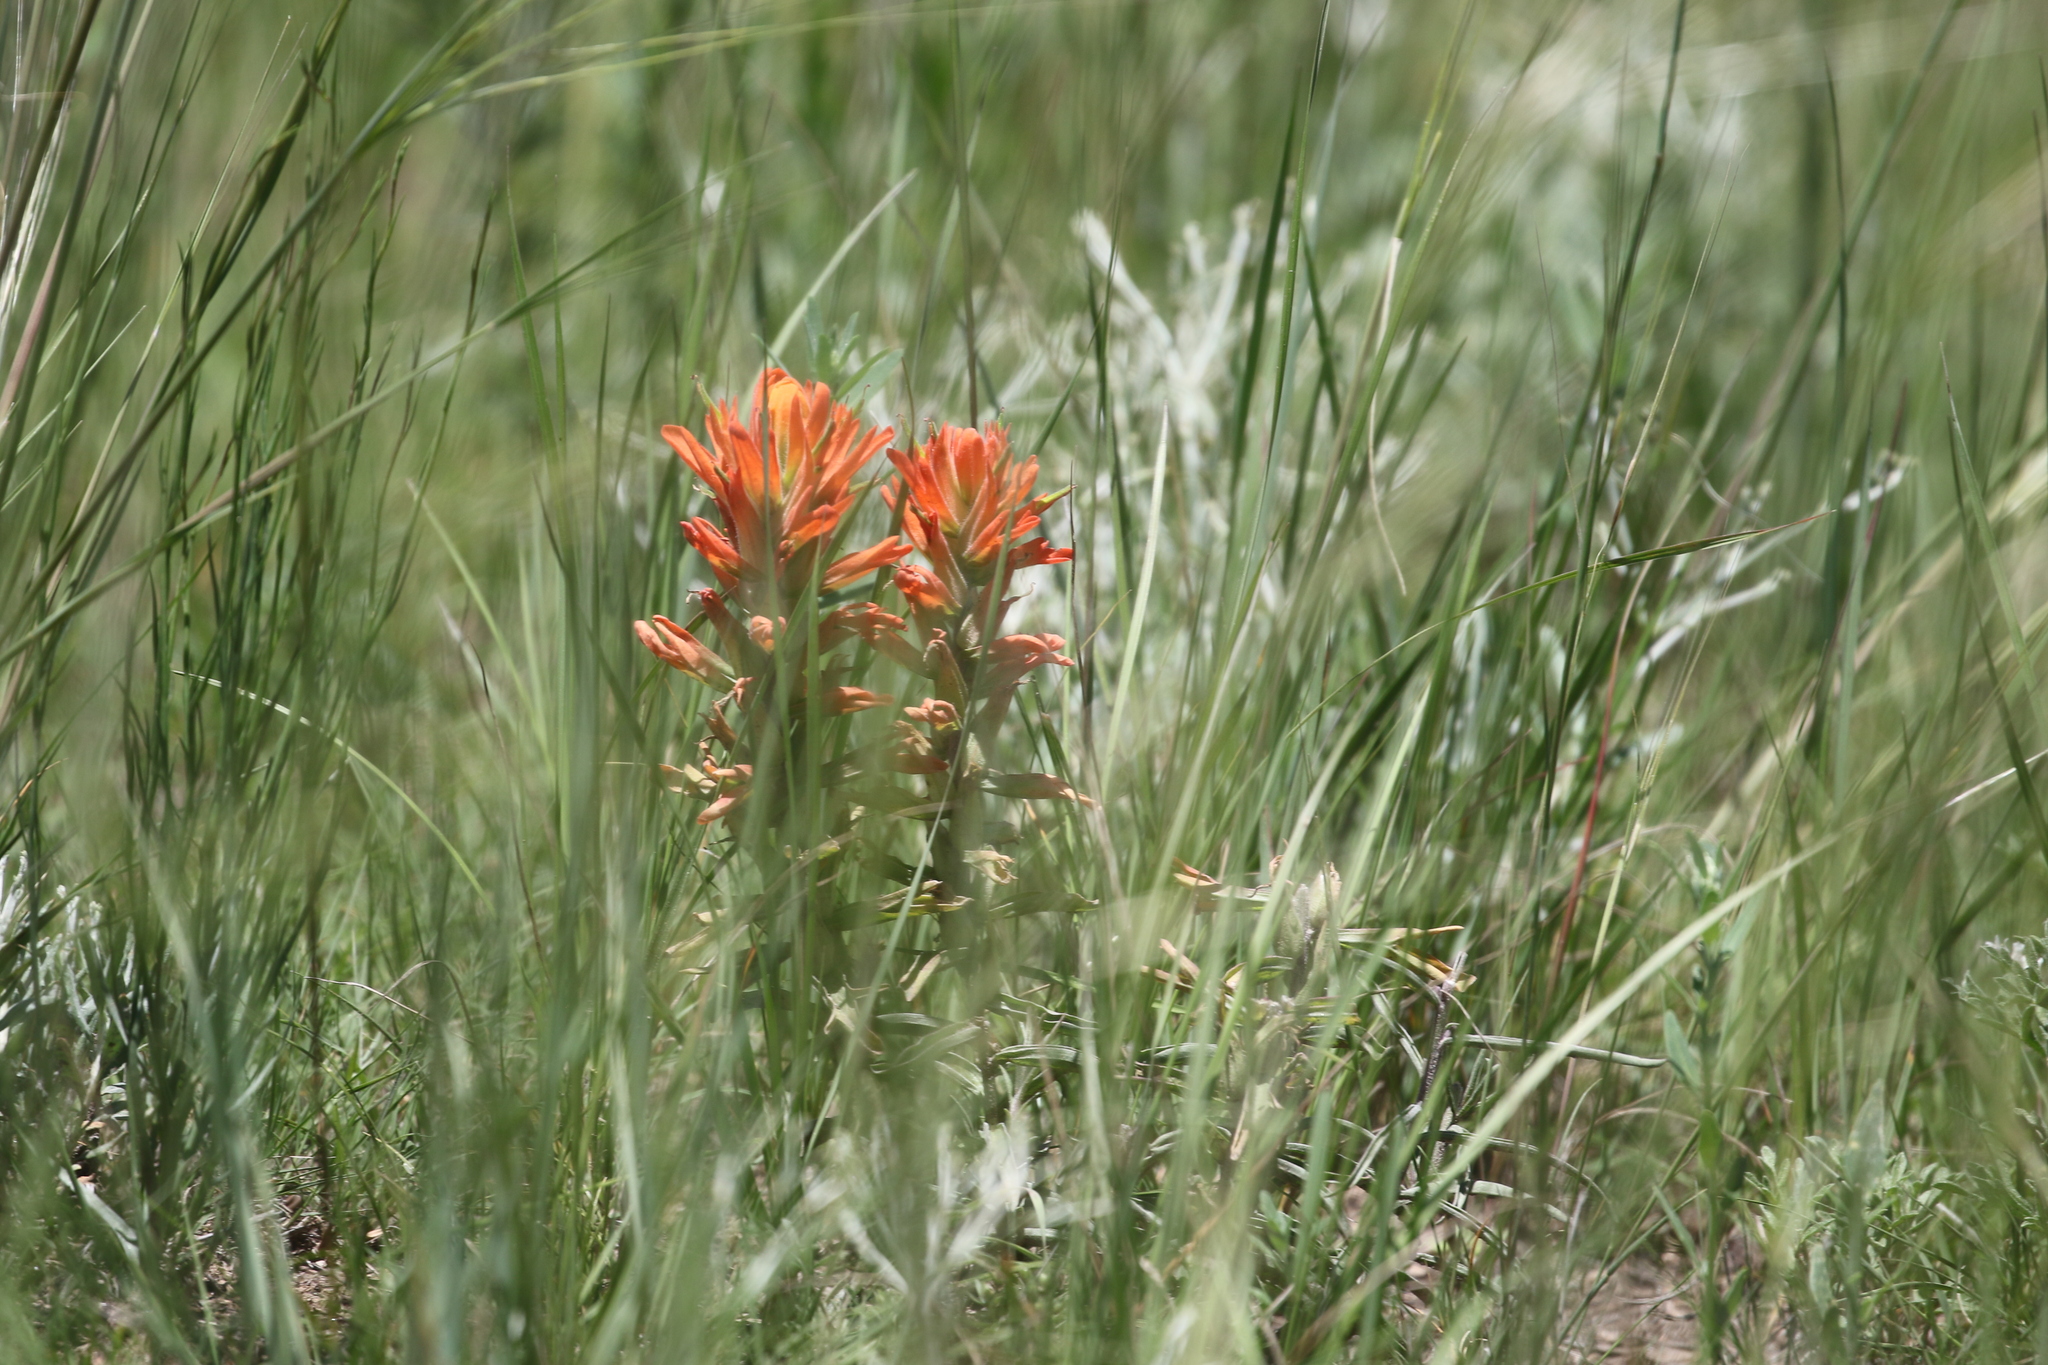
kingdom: Plantae
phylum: Tracheophyta
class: Magnoliopsida
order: Lamiales
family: Orobanchaceae
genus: Castilleja
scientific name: Castilleja integra
